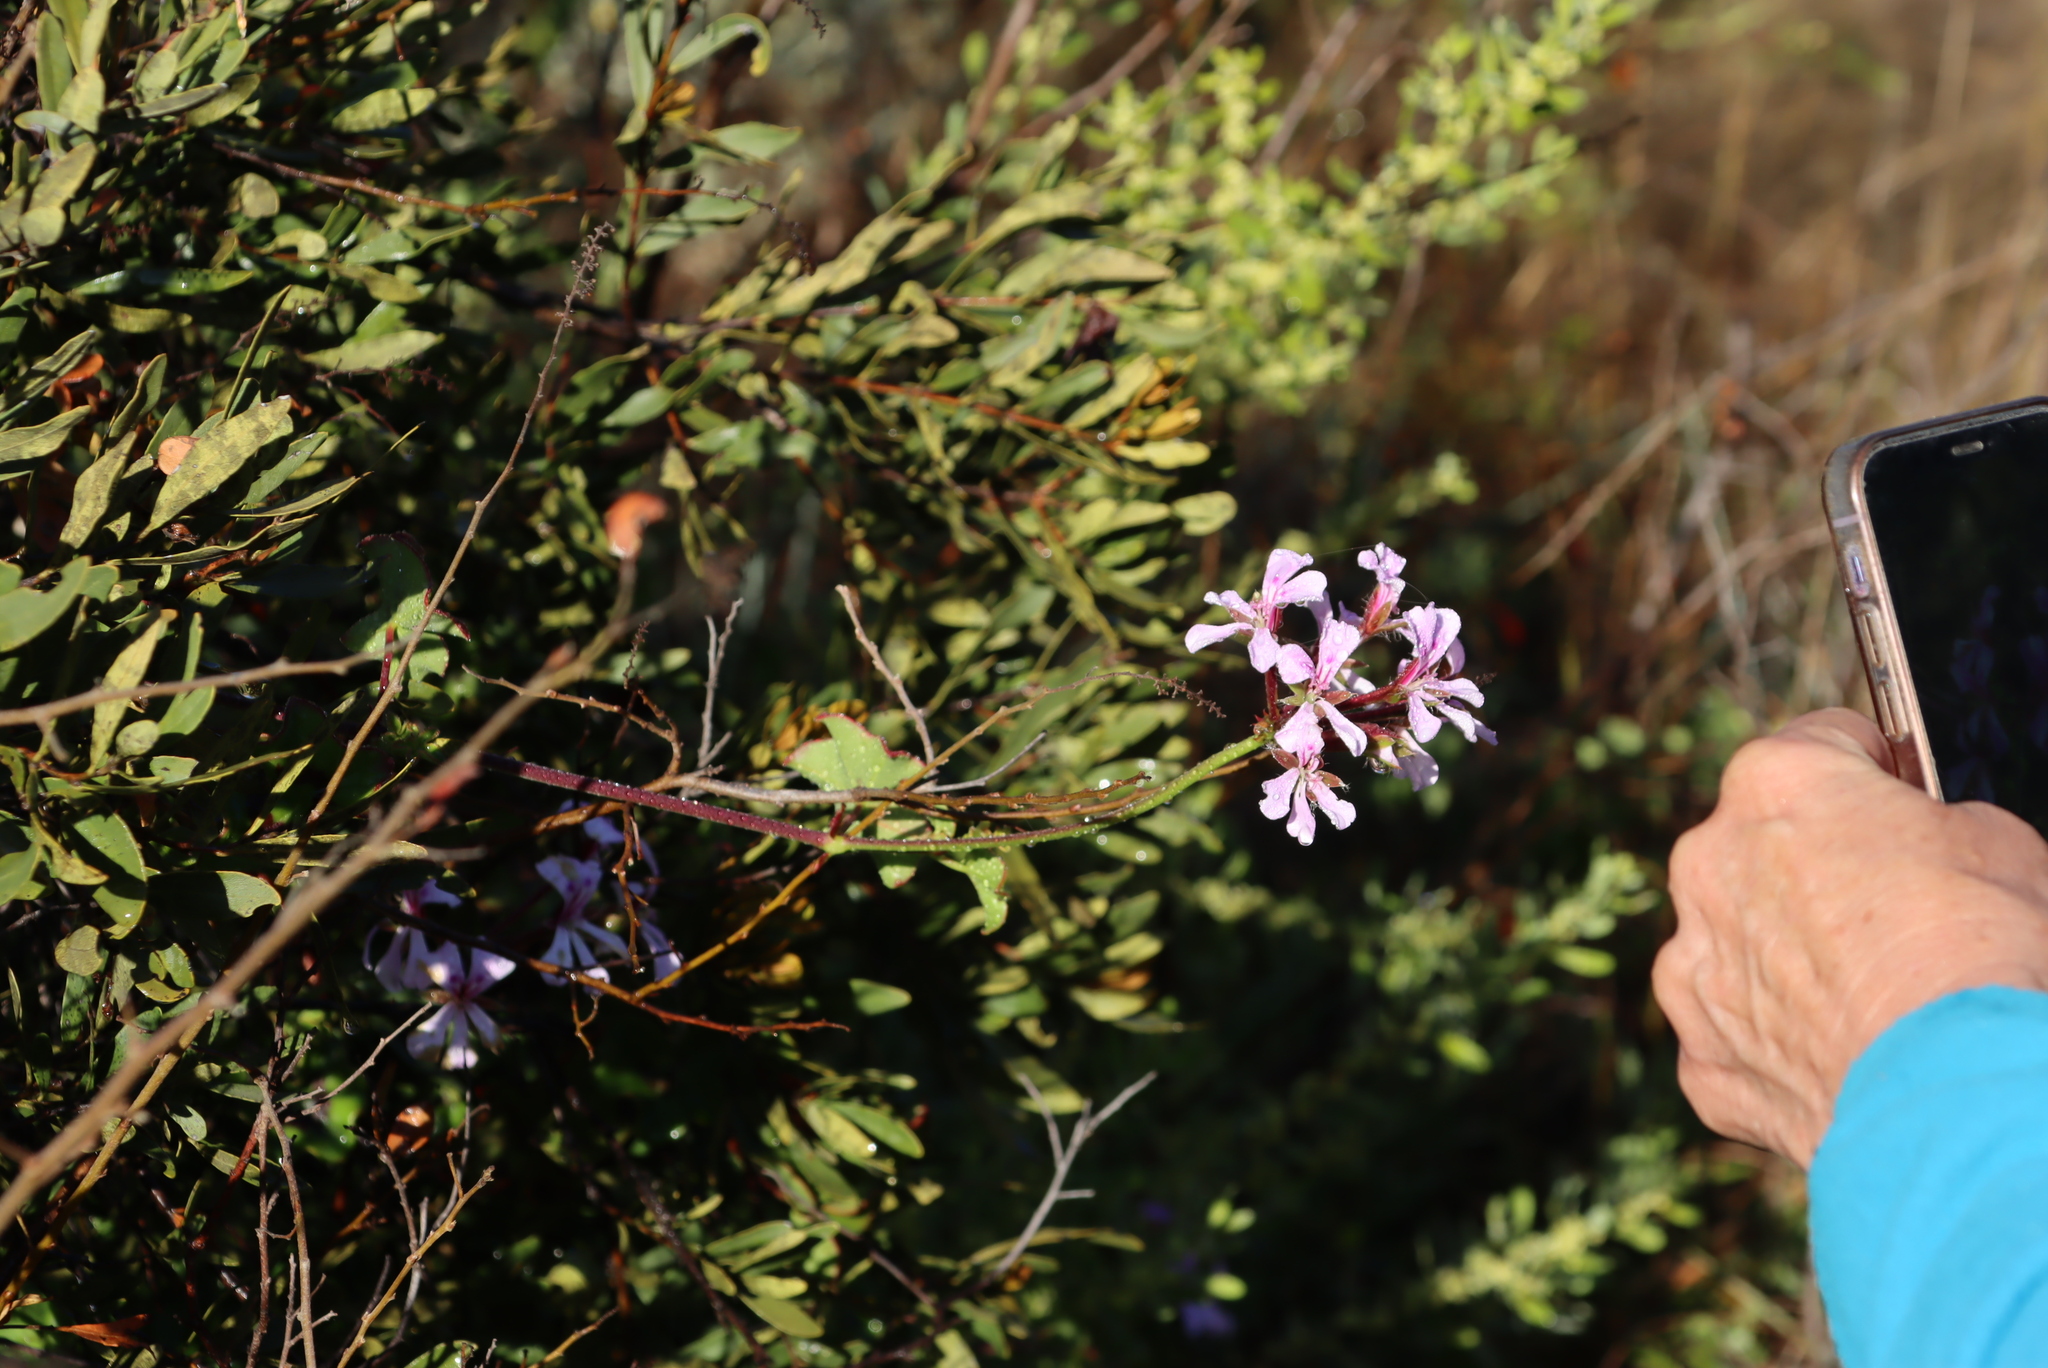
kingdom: Plantae
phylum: Tracheophyta
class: Magnoliopsida
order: Geraniales
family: Geraniaceae
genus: Pelargonium
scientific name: Pelargonium peltatum
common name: Ivyleaf geranium
